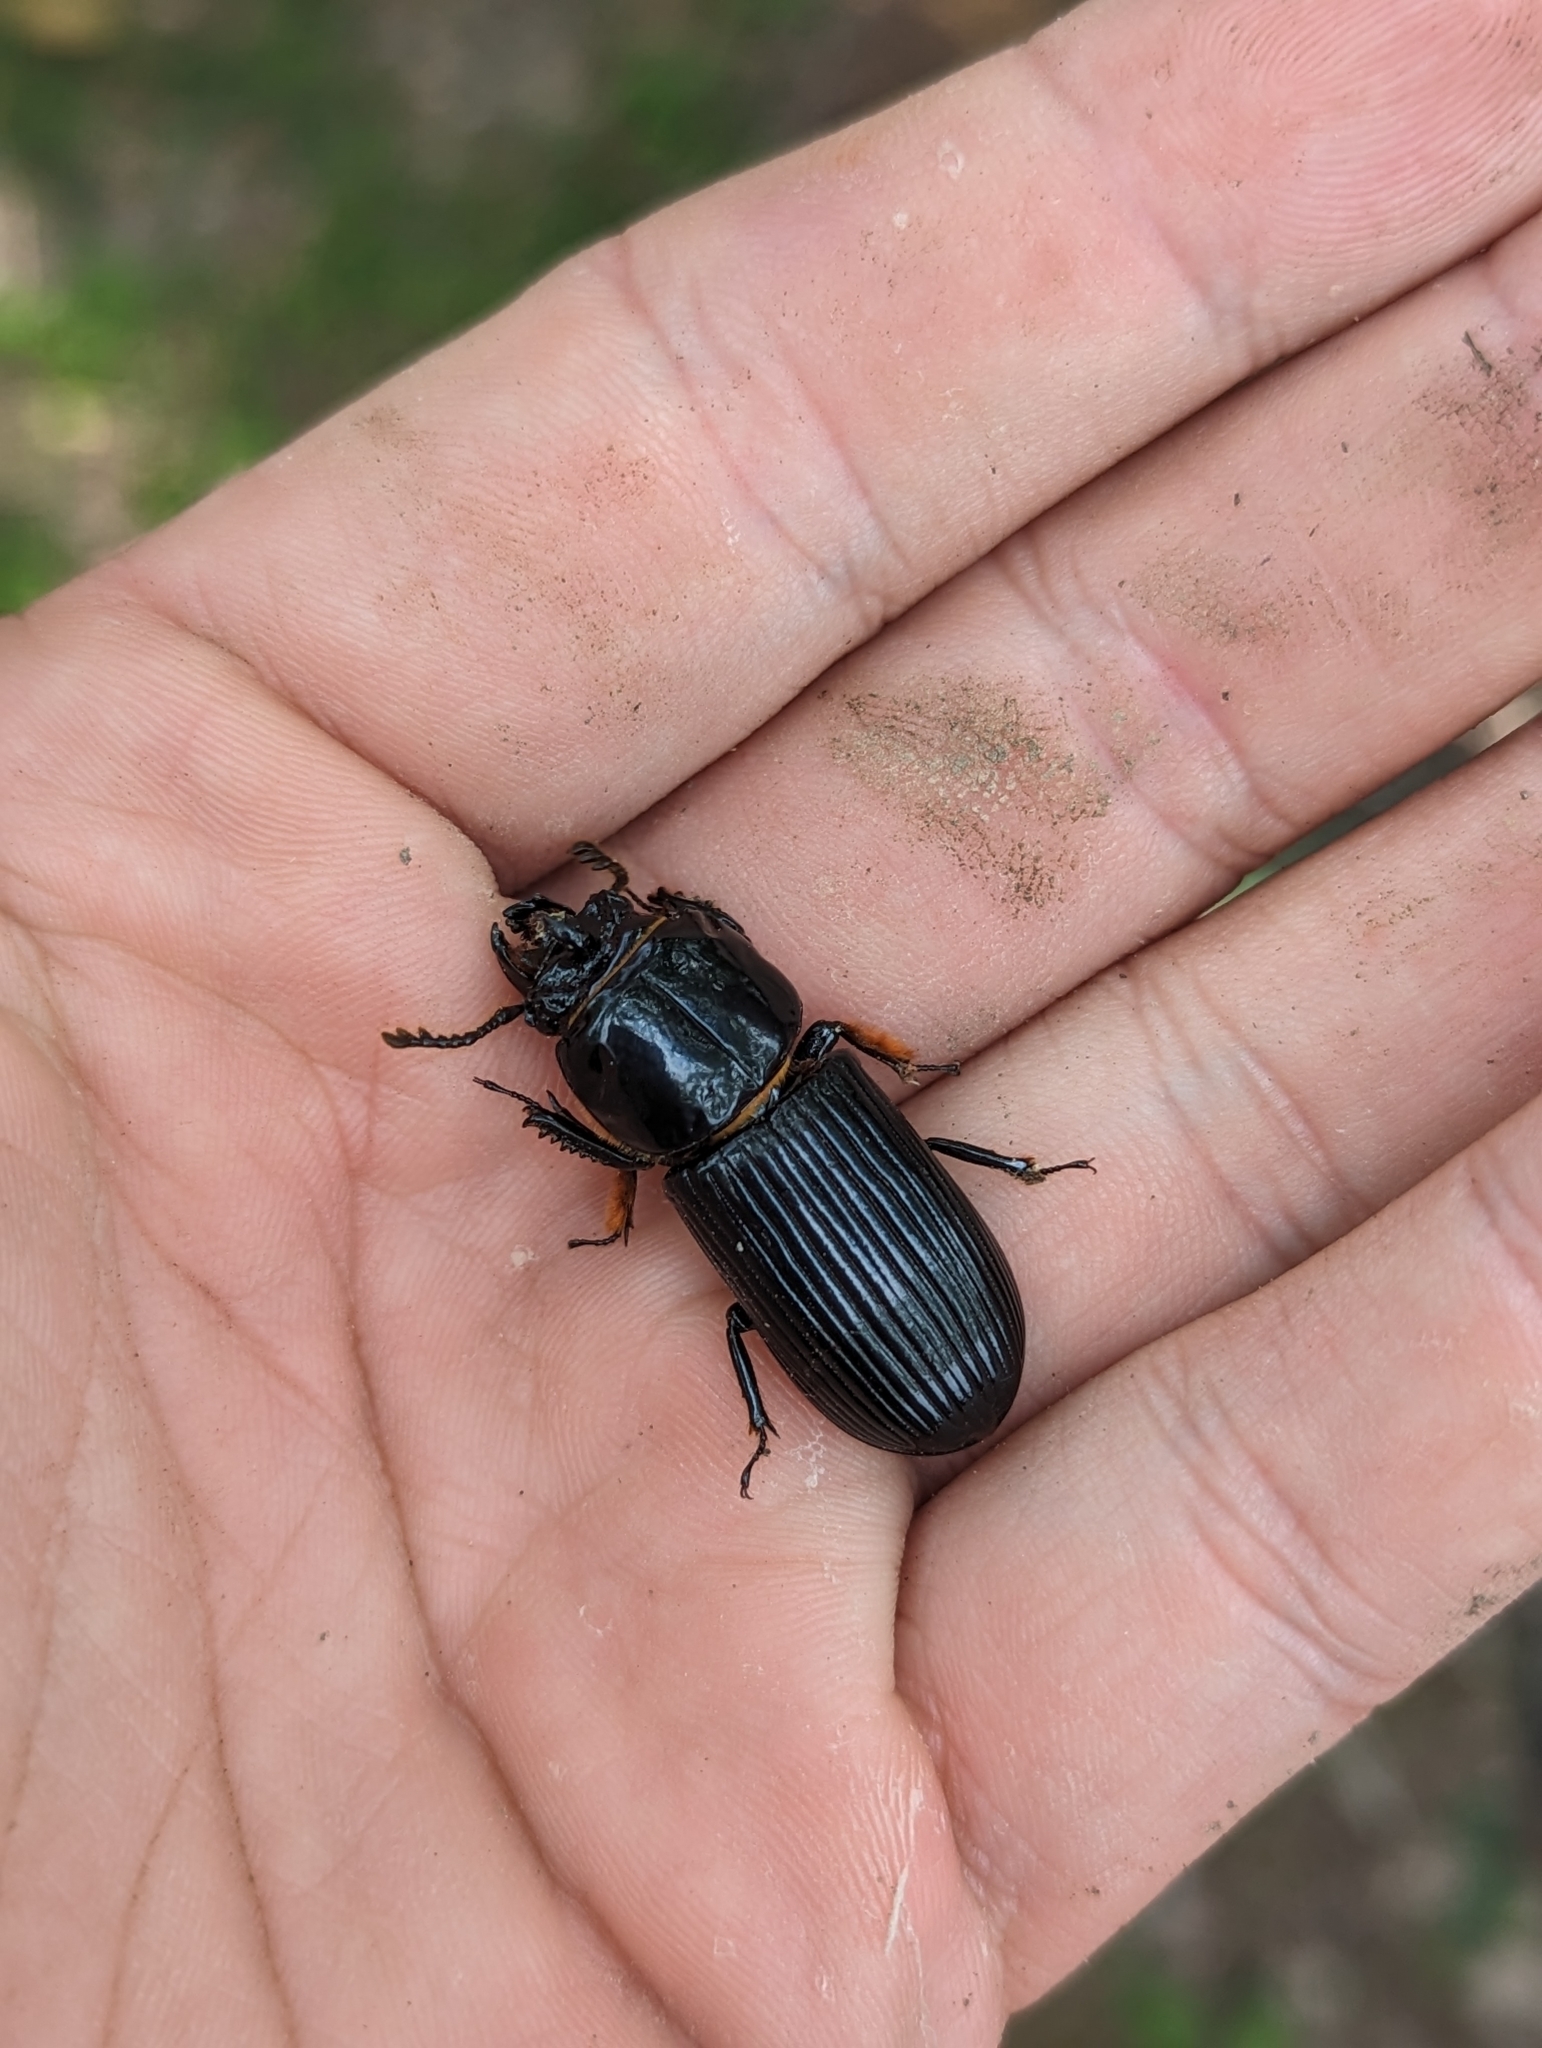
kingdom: Animalia
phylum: Arthropoda
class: Insecta
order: Coleoptera
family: Passalidae
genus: Odontotaenius
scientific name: Odontotaenius disjunctus
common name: Patent leather beetle
